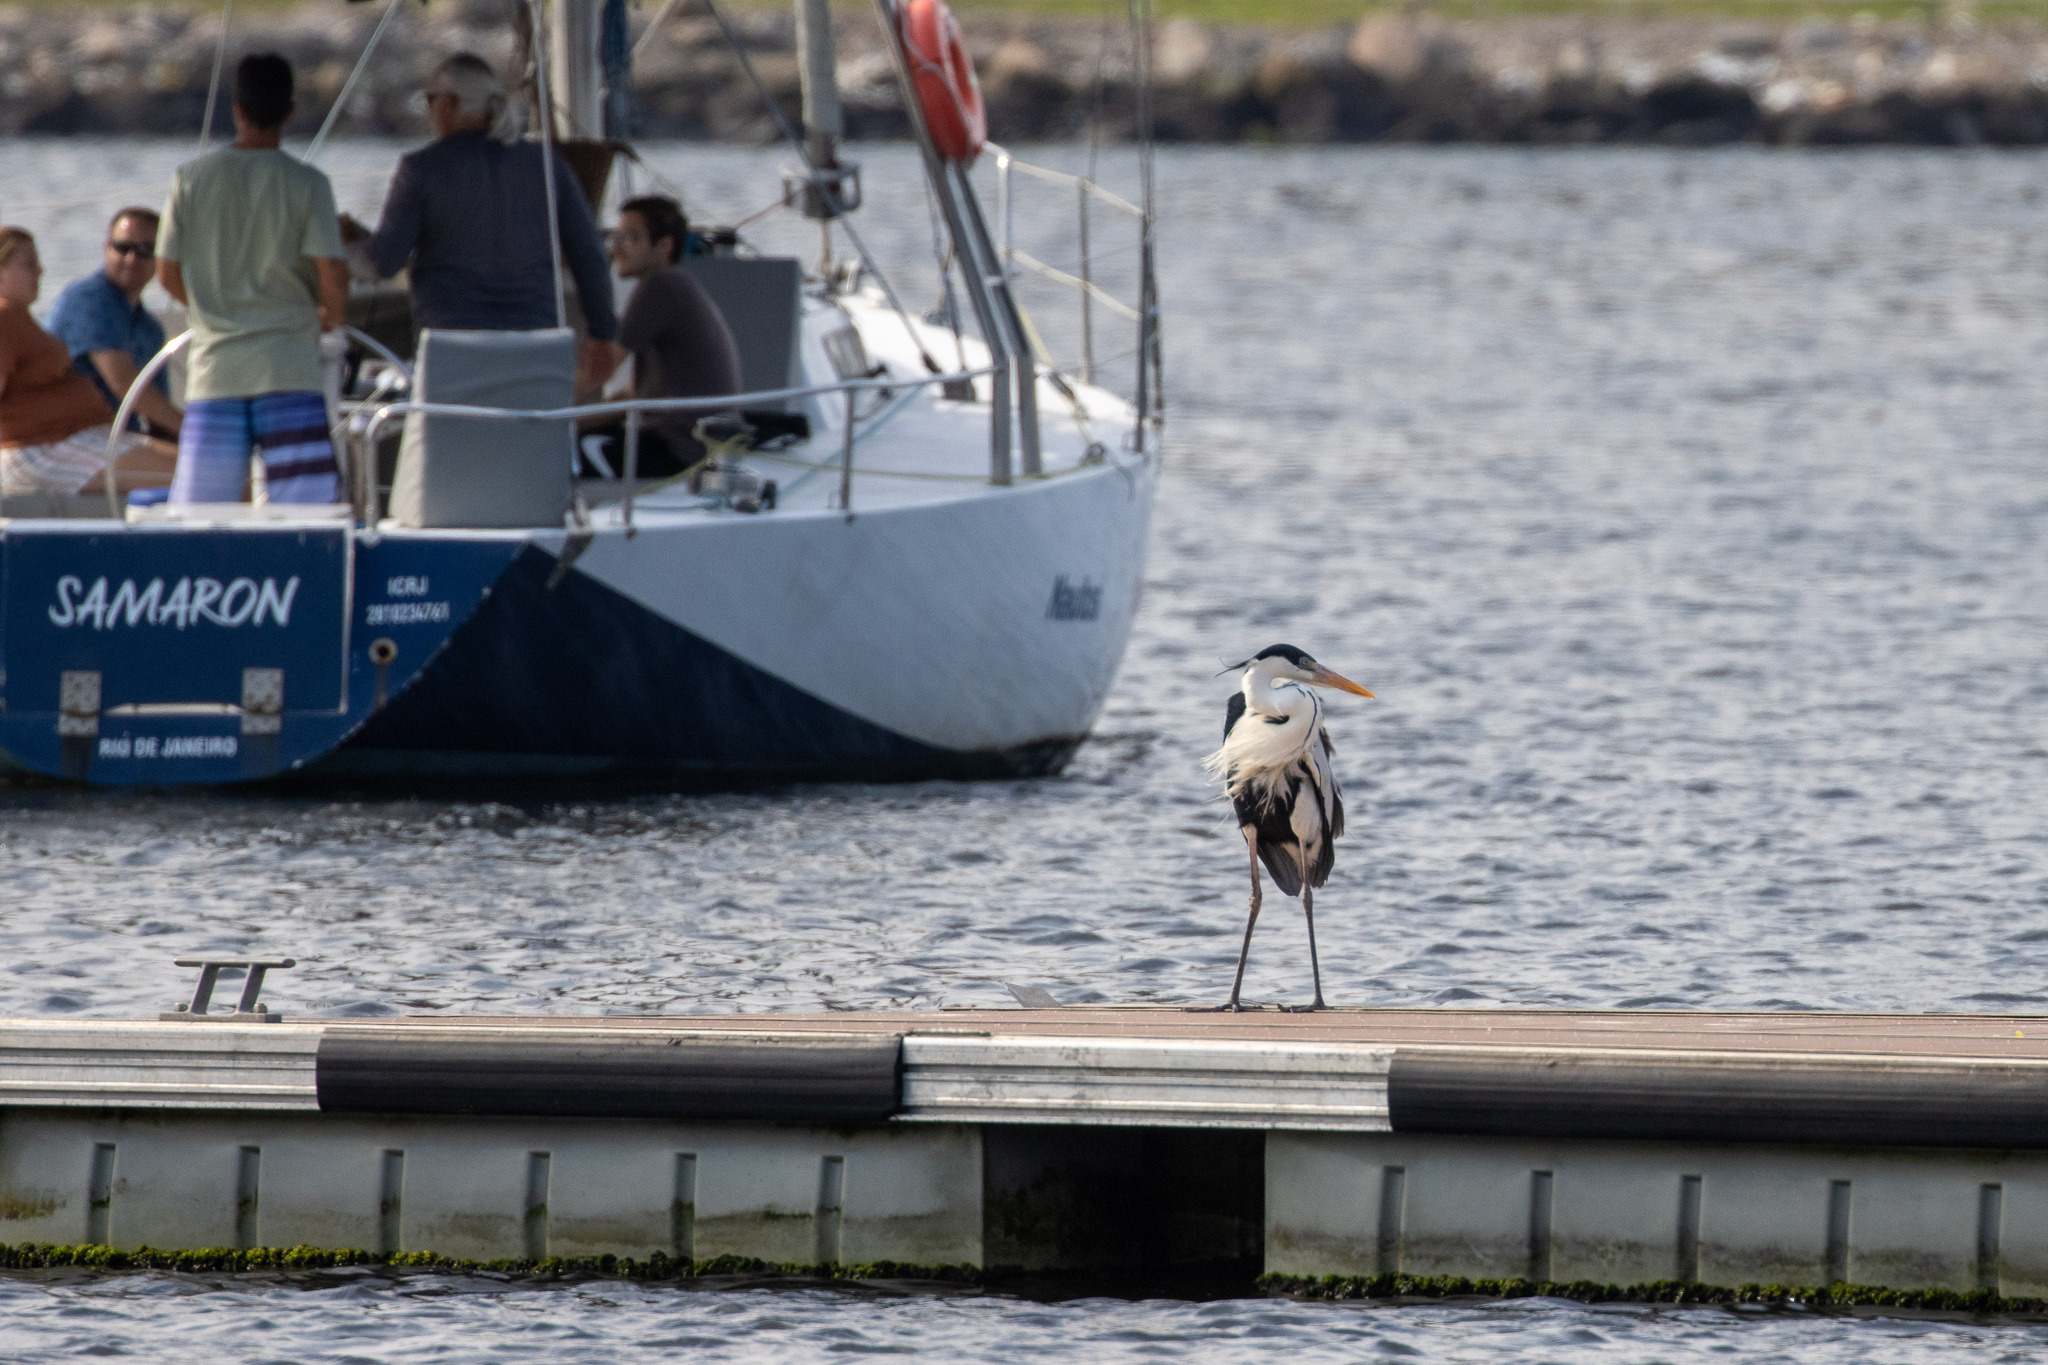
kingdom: Animalia
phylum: Chordata
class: Aves
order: Pelecaniformes
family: Ardeidae
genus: Ardea
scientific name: Ardea cocoi
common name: Cocoi heron
